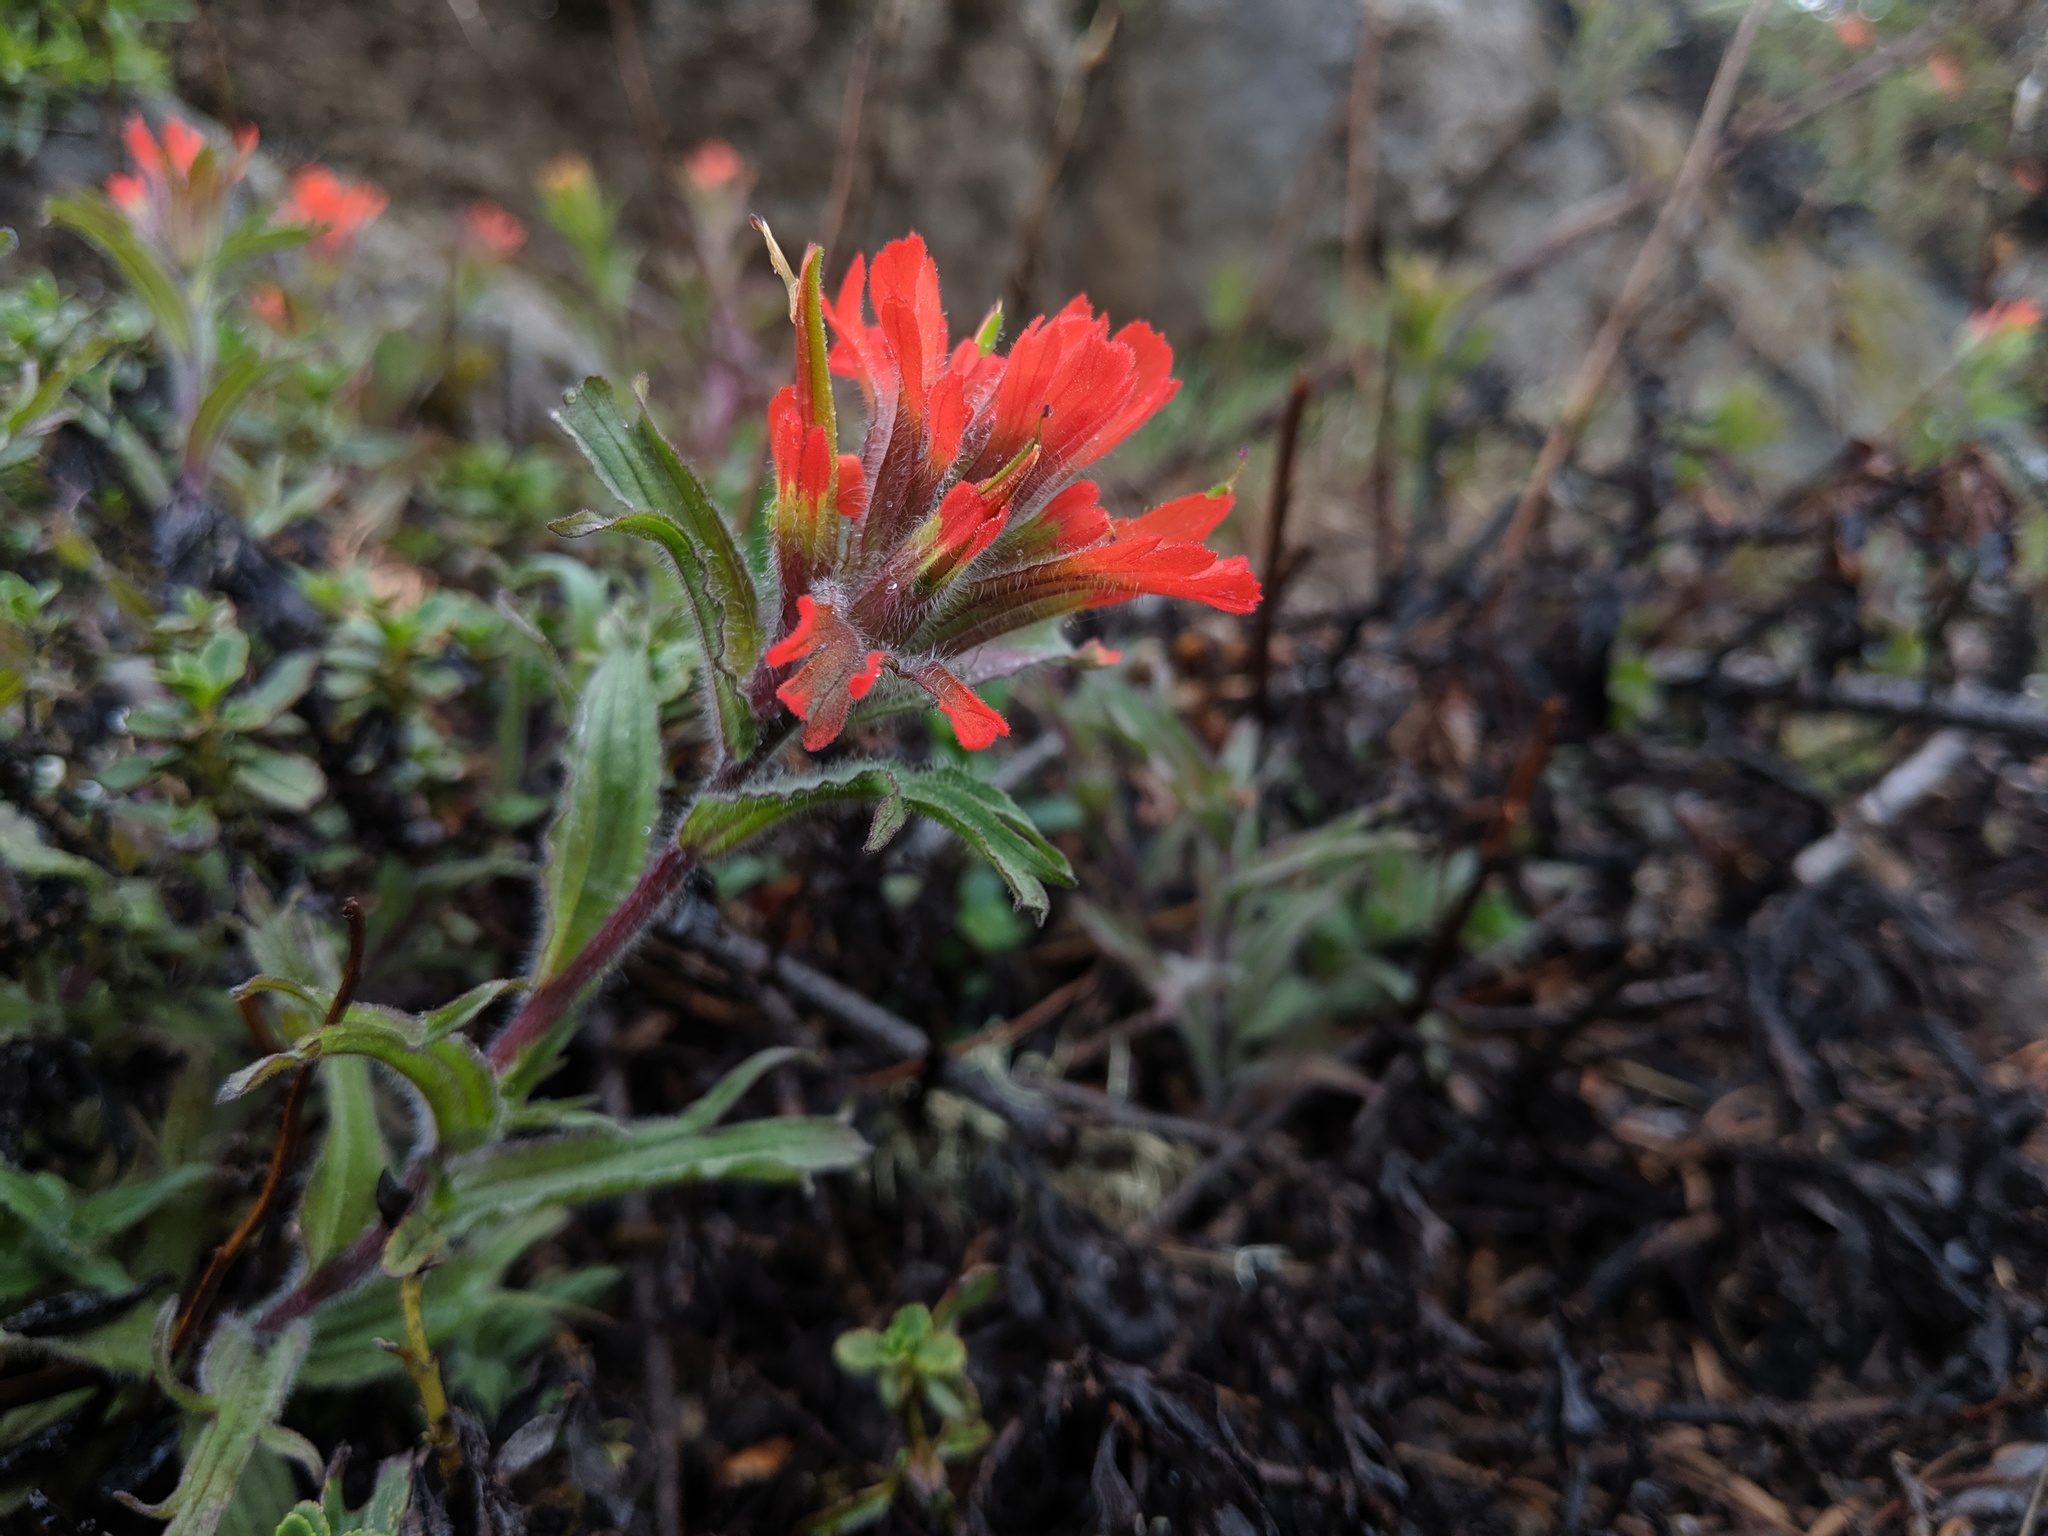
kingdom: Plantae
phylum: Tracheophyta
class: Magnoliopsida
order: Lamiales
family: Orobanchaceae
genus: Castilleja
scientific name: Castilleja hispida
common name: Bristly paintbrush
